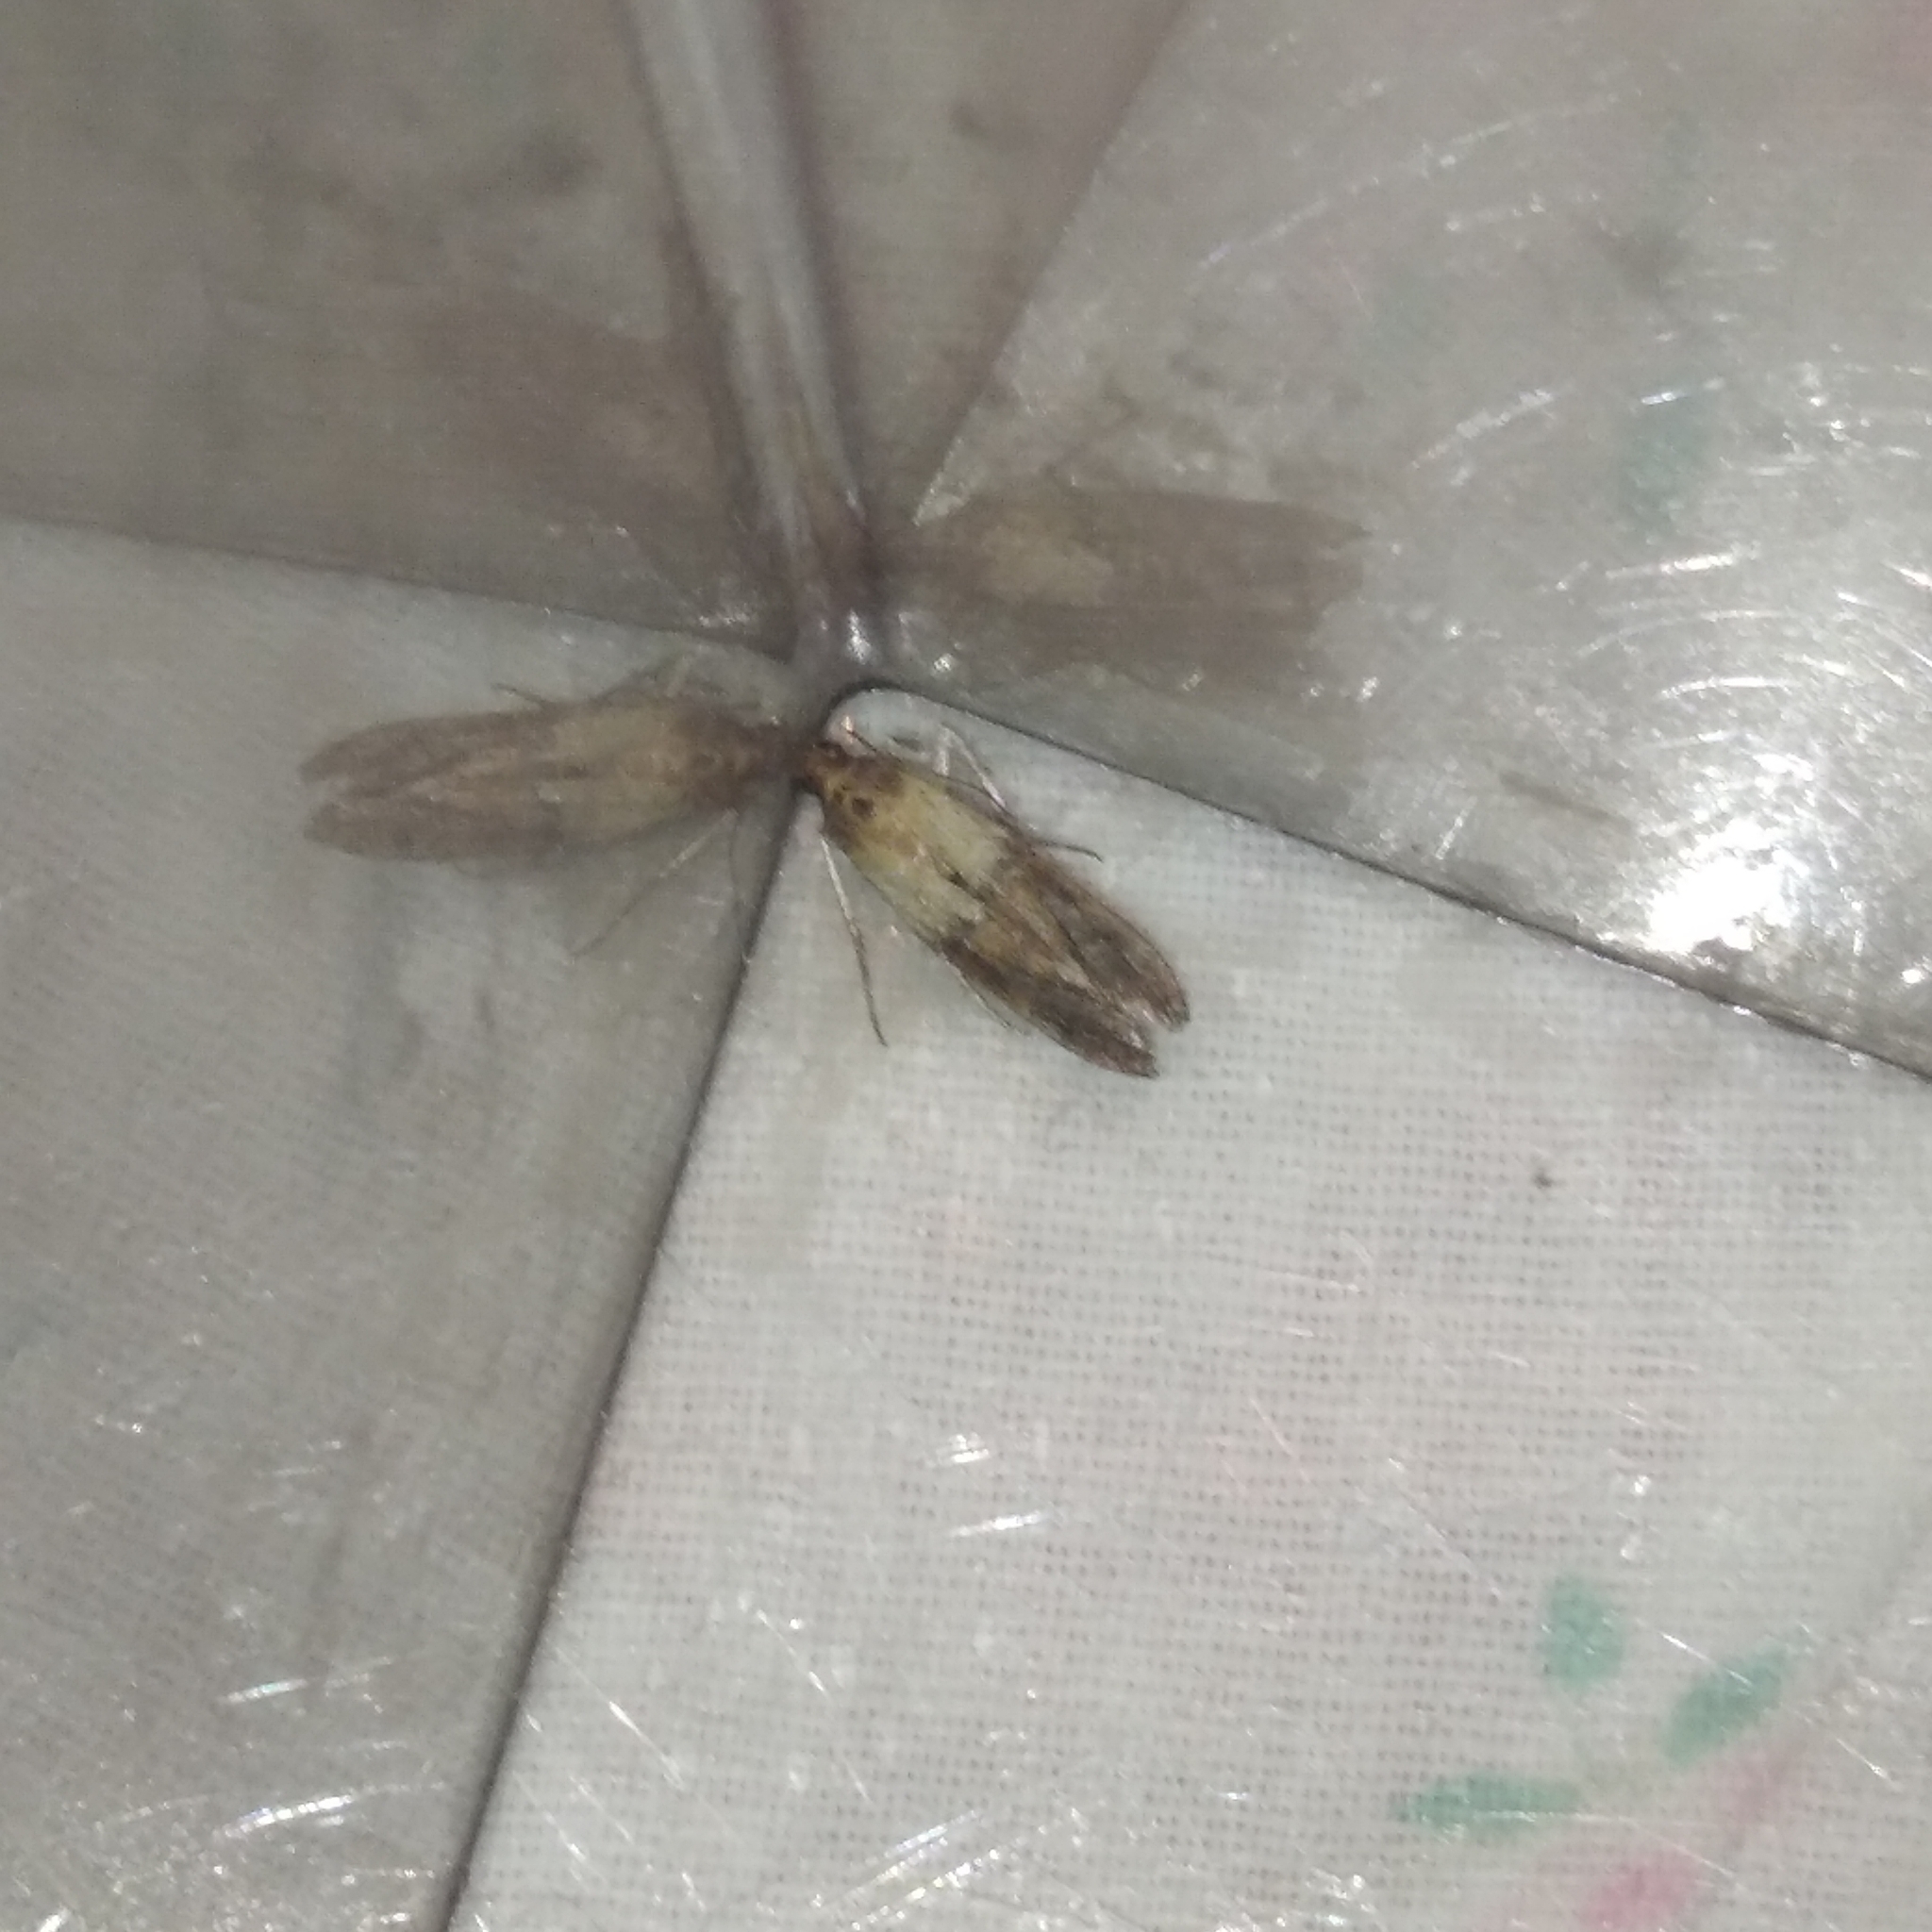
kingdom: Animalia
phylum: Arthropoda
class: Insecta
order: Lepidoptera
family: Pyralidae
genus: Plodia
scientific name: Plodia interpunctella
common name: Indian meal moth
